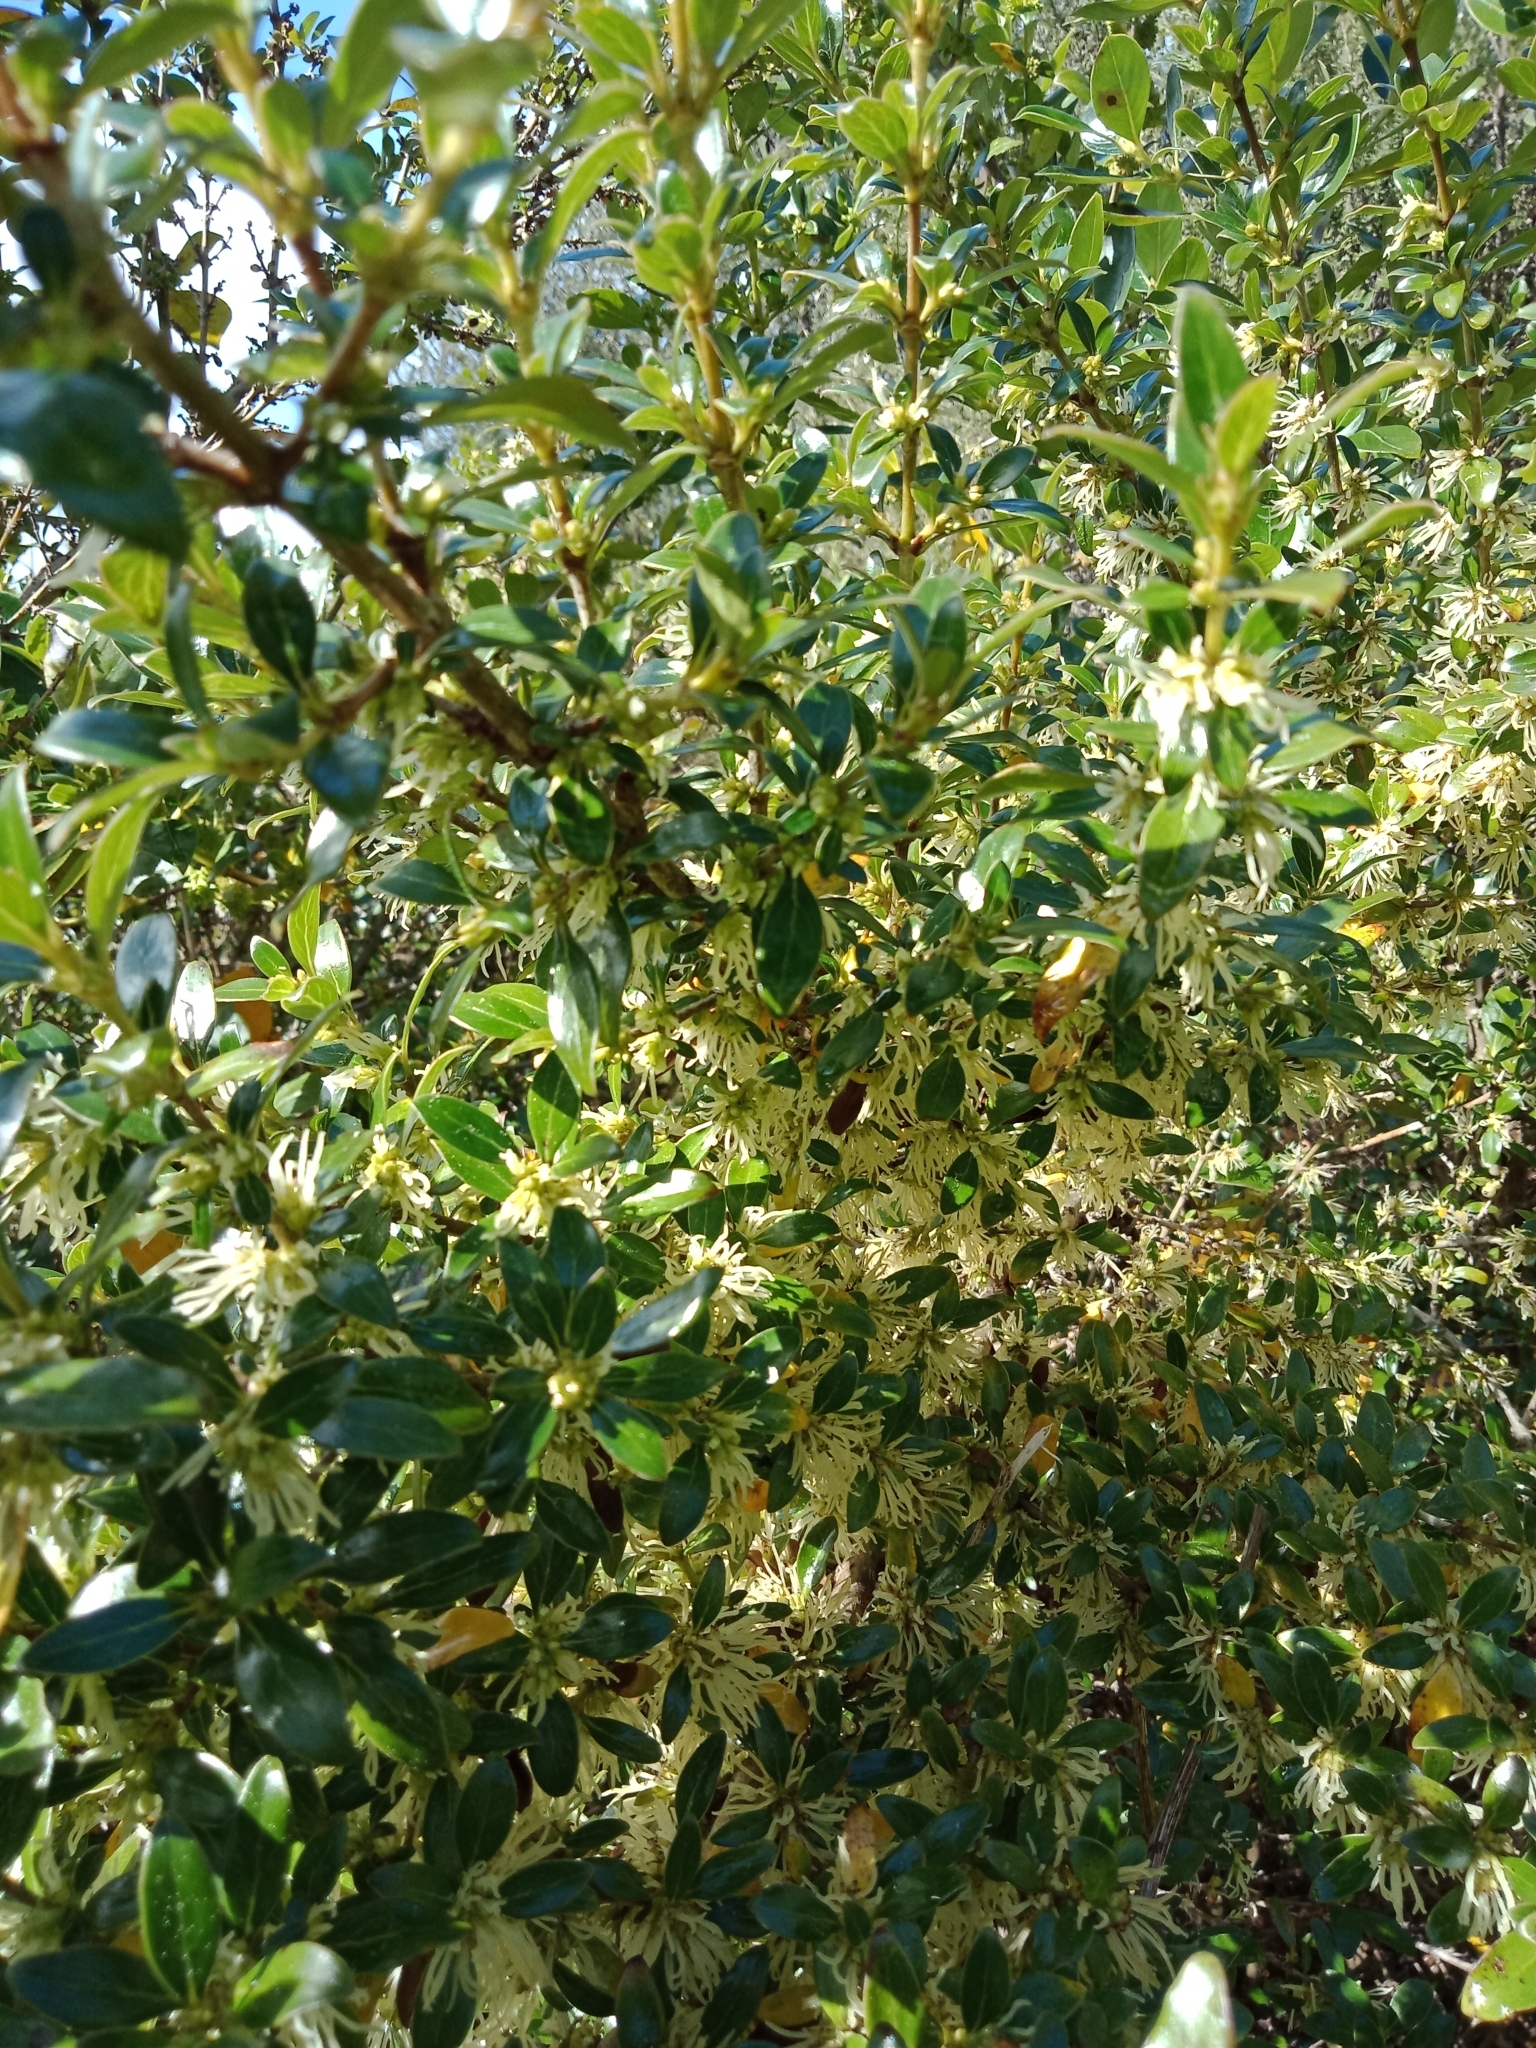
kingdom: Plantae
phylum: Tracheophyta
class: Magnoliopsida
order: Gentianales
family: Rubiaceae
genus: Coprosma
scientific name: Coprosma cunninghamii
